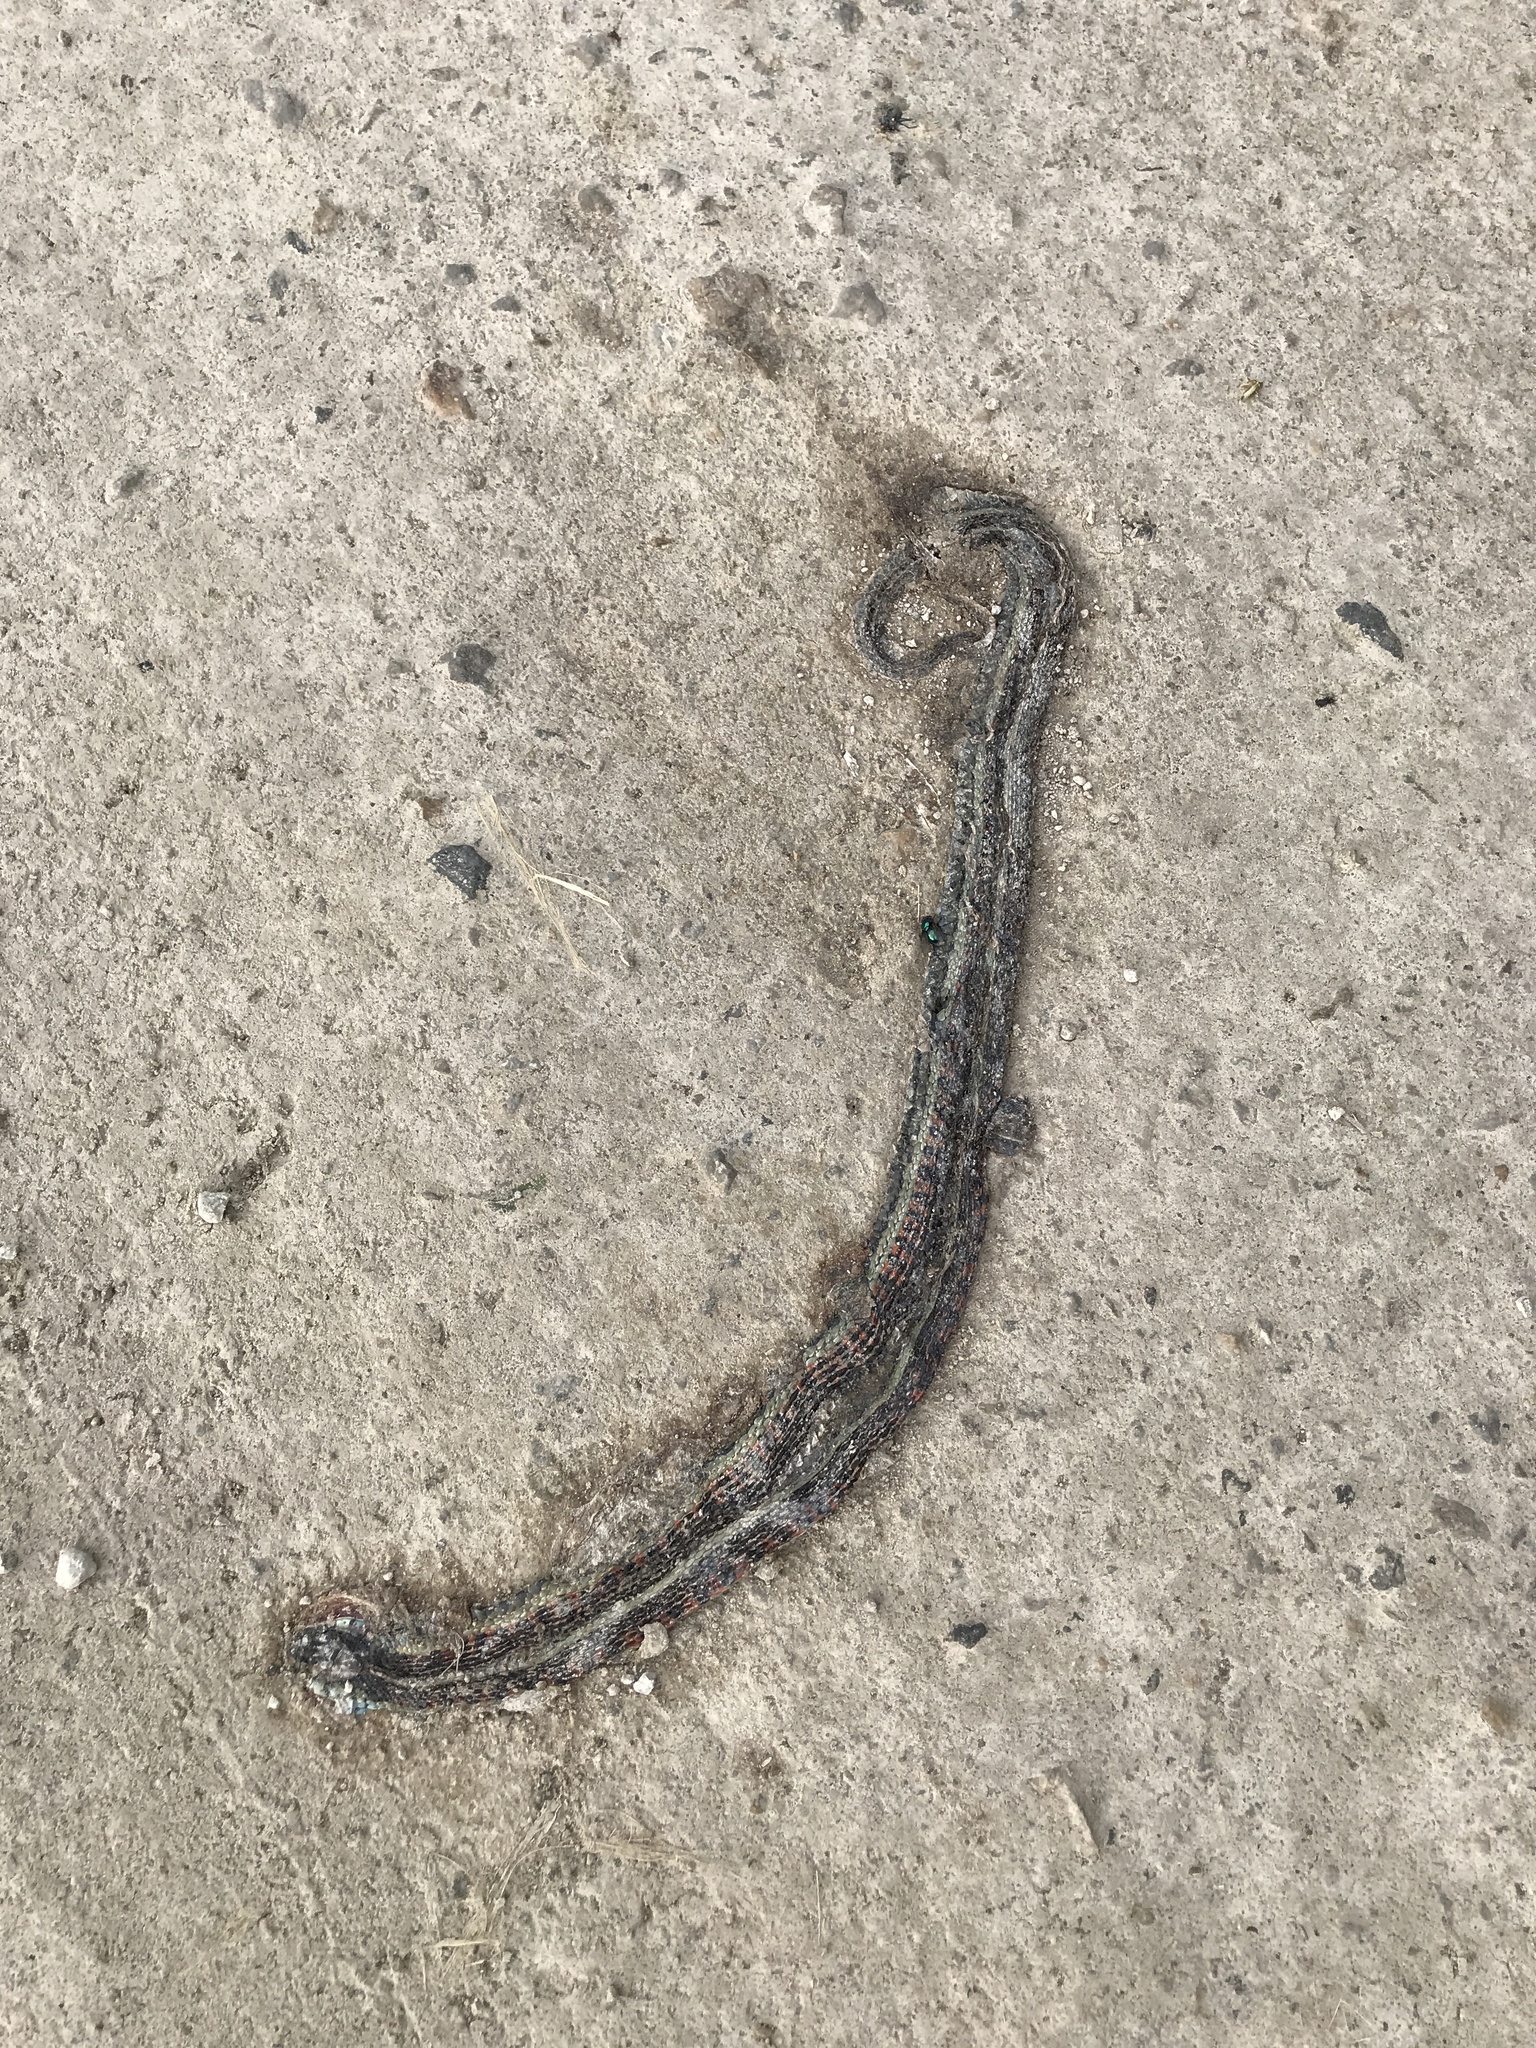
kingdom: Animalia
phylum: Chordata
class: Squamata
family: Colubridae
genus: Thamnophis
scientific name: Thamnophis sirtalis
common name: Common garter snake
